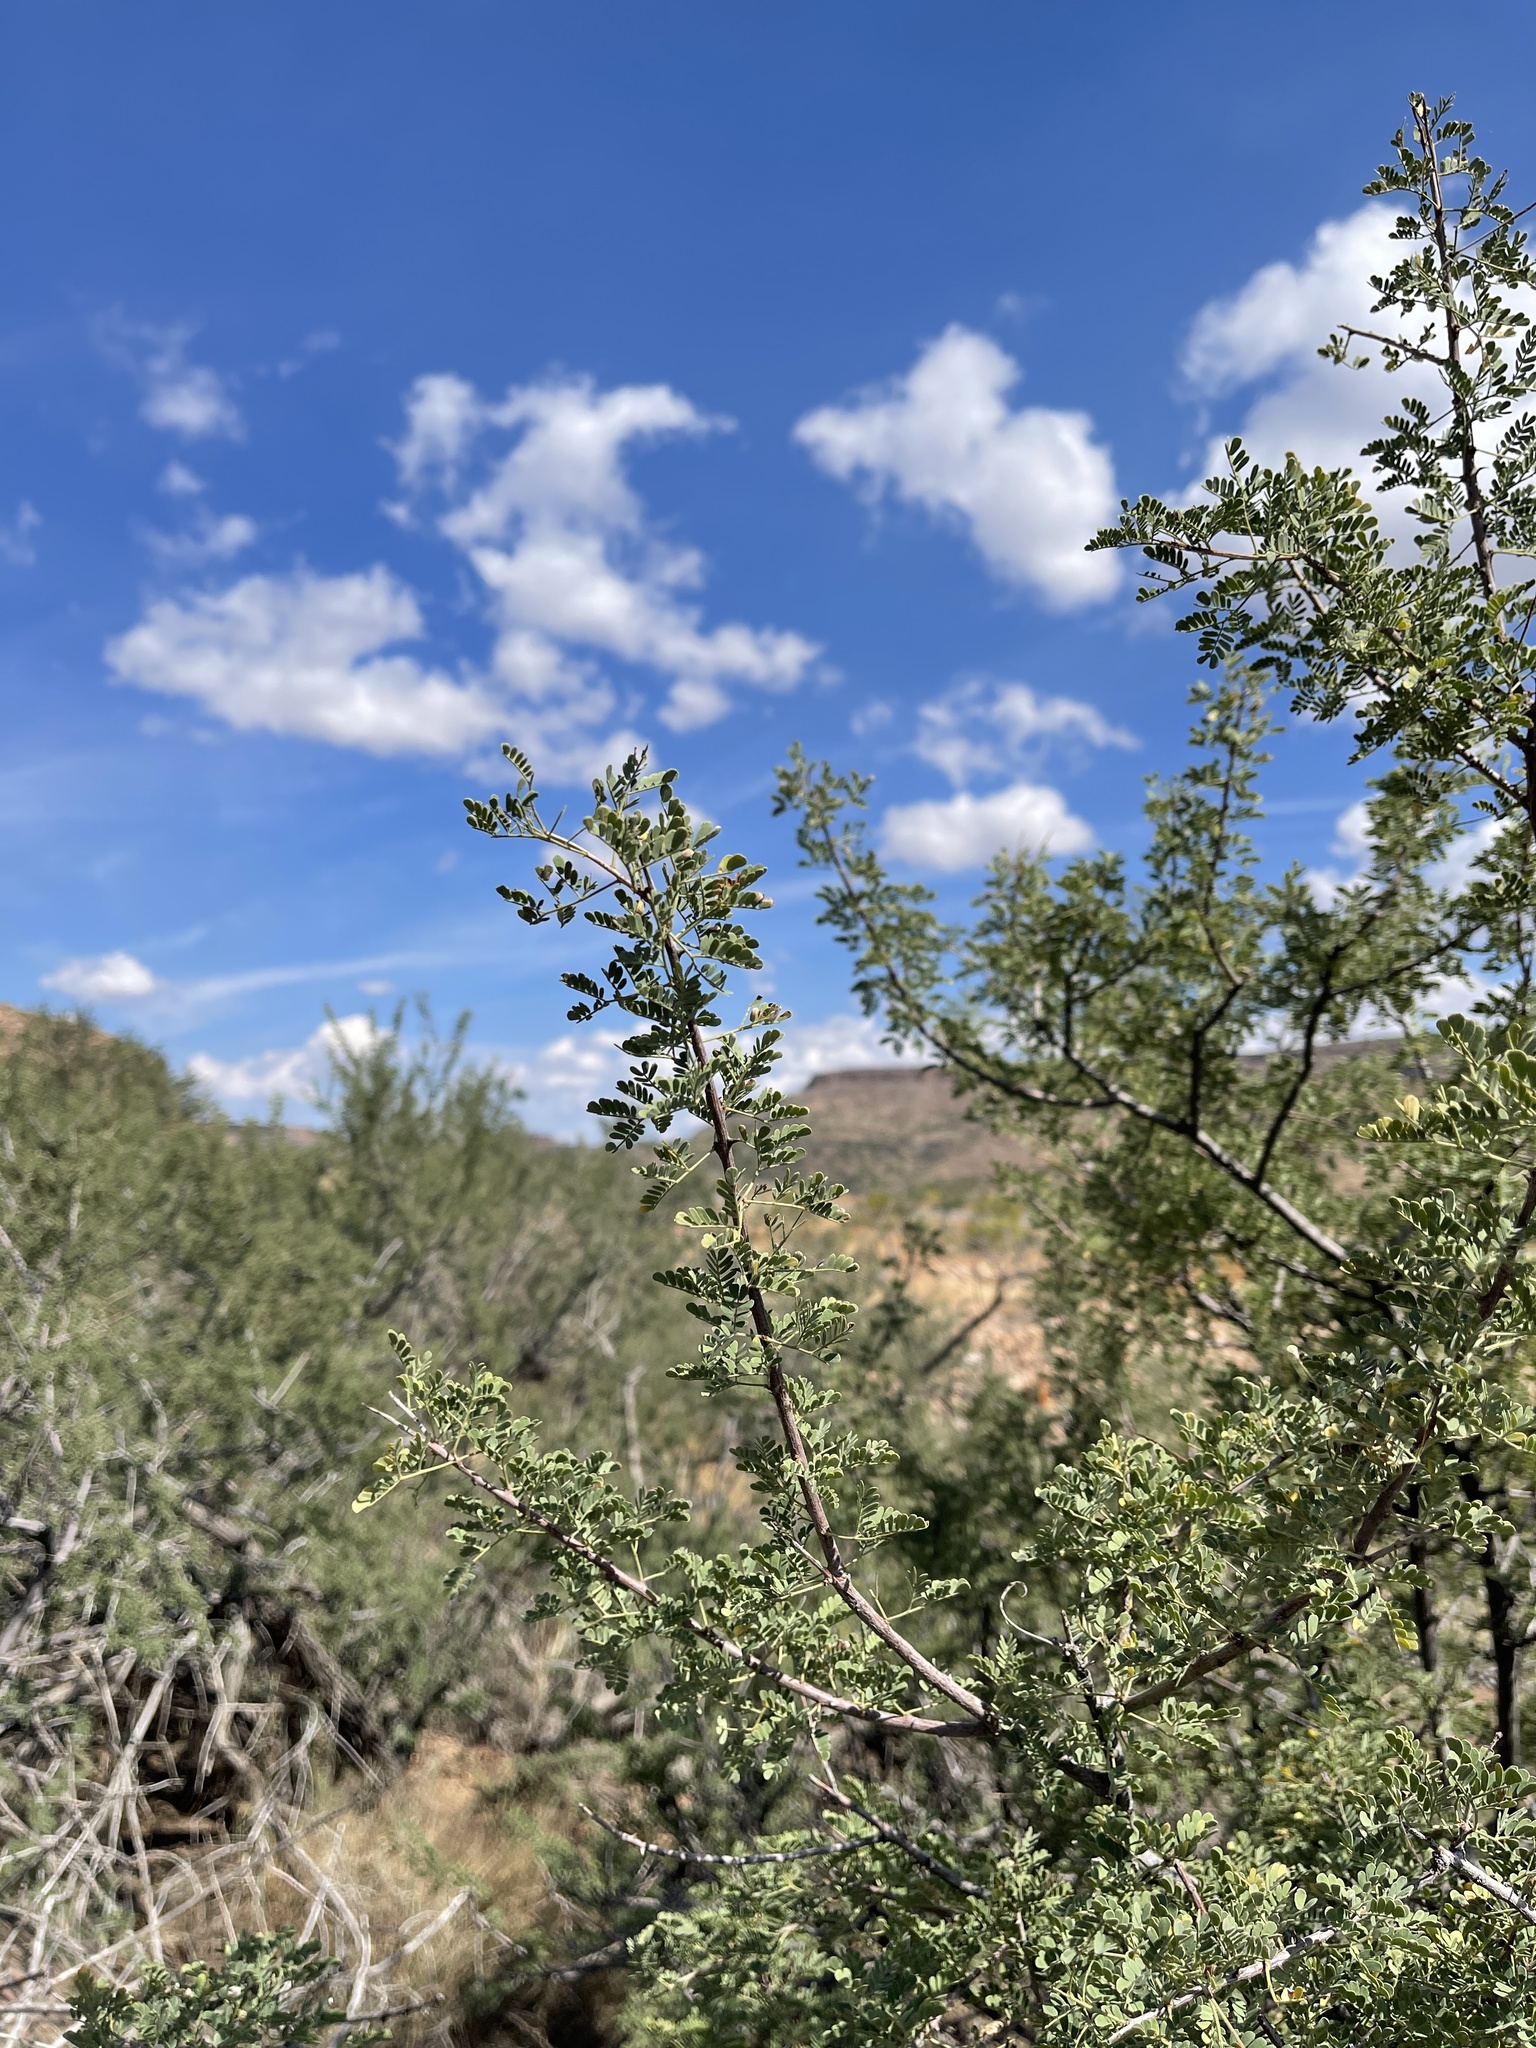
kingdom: Plantae
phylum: Tracheophyta
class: Magnoliopsida
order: Fabales
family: Fabaceae
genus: Senegalia
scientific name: Senegalia greggii
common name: Texas-mimosa
